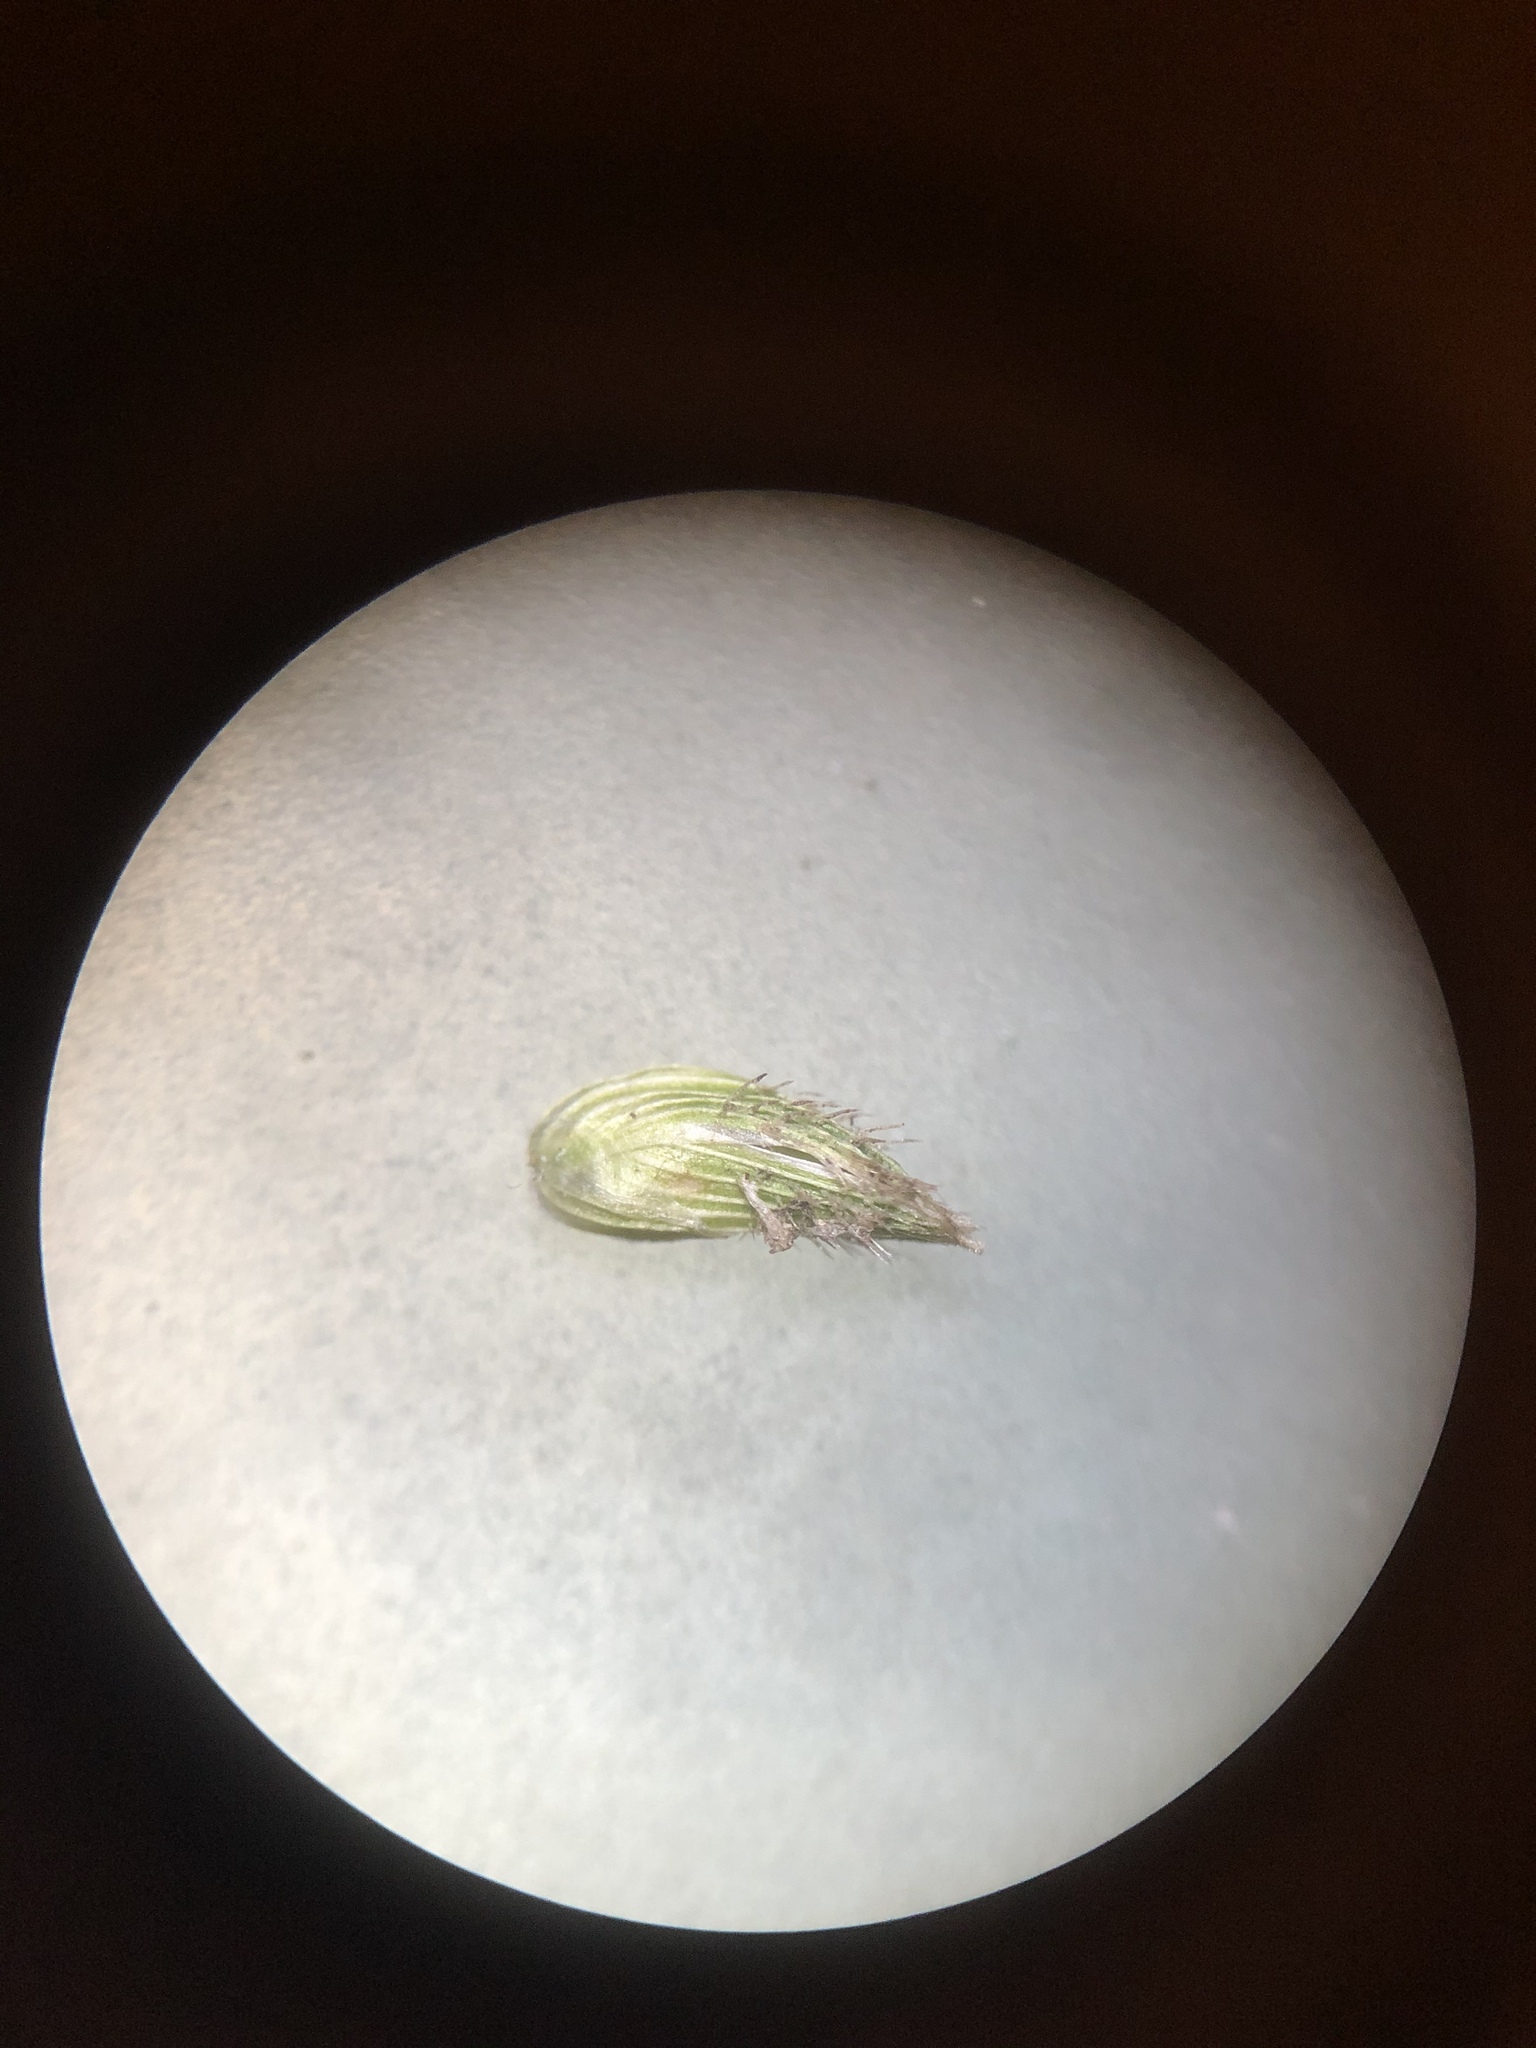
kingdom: Plantae
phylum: Tracheophyta
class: Liliopsida
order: Poales
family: Poaceae
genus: Sacciolepis
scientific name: Sacciolepis indica
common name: Glenwoodgrass
